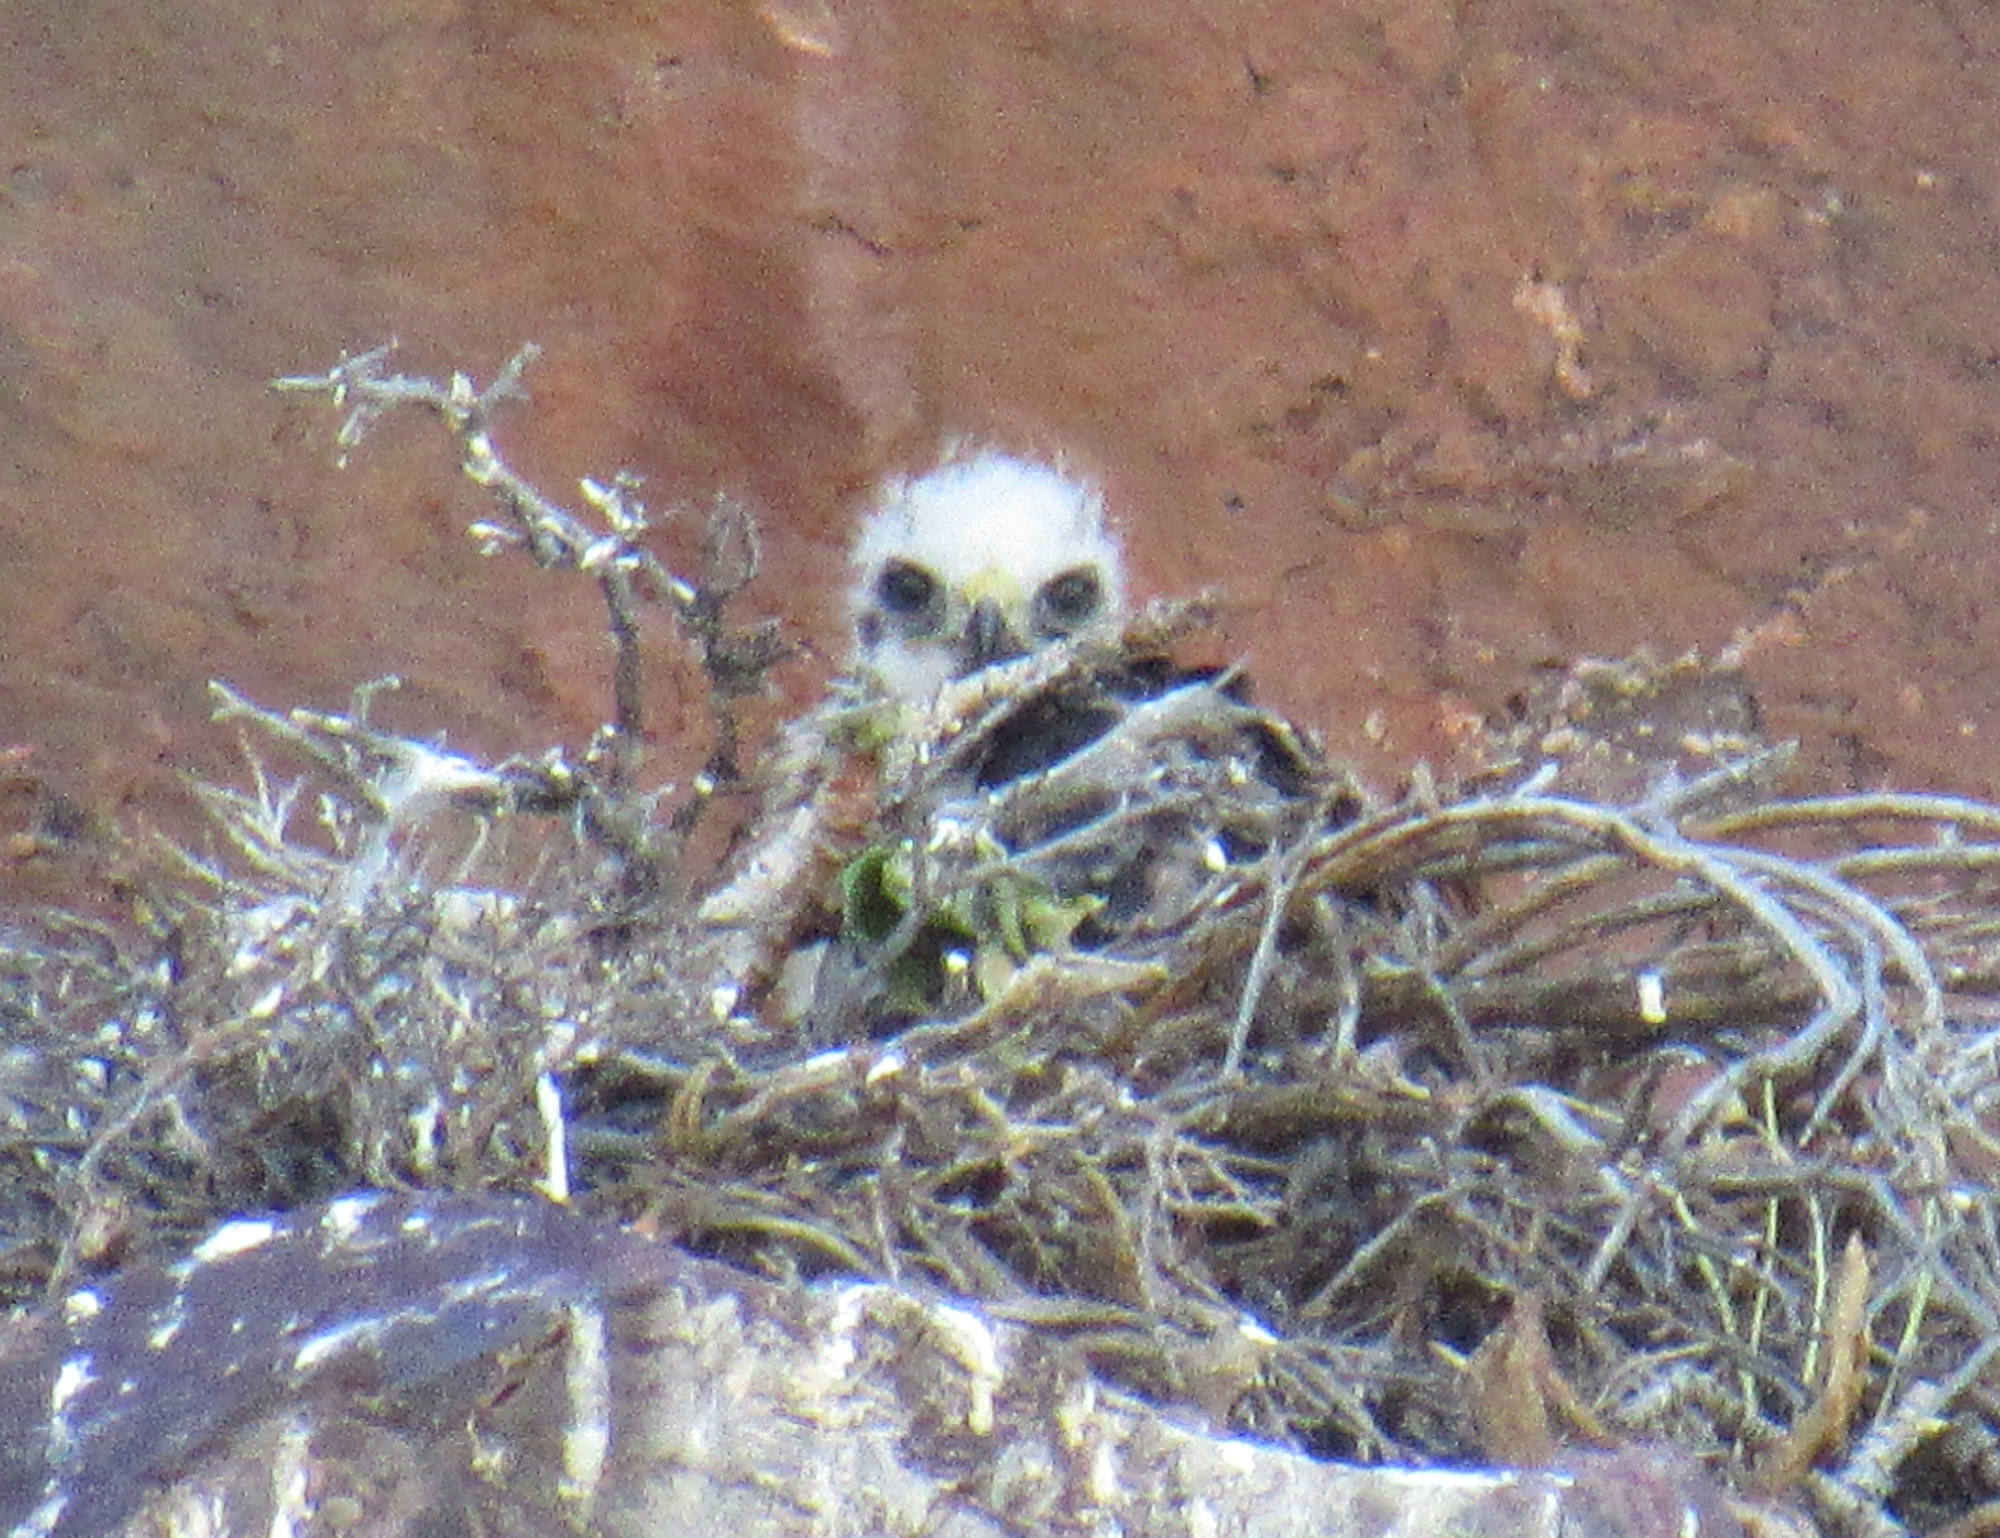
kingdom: Animalia
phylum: Chordata
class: Aves
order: Accipitriformes
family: Accipitridae
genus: Buteo
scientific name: Buteo jamaicensis
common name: Red-tailed hawk
